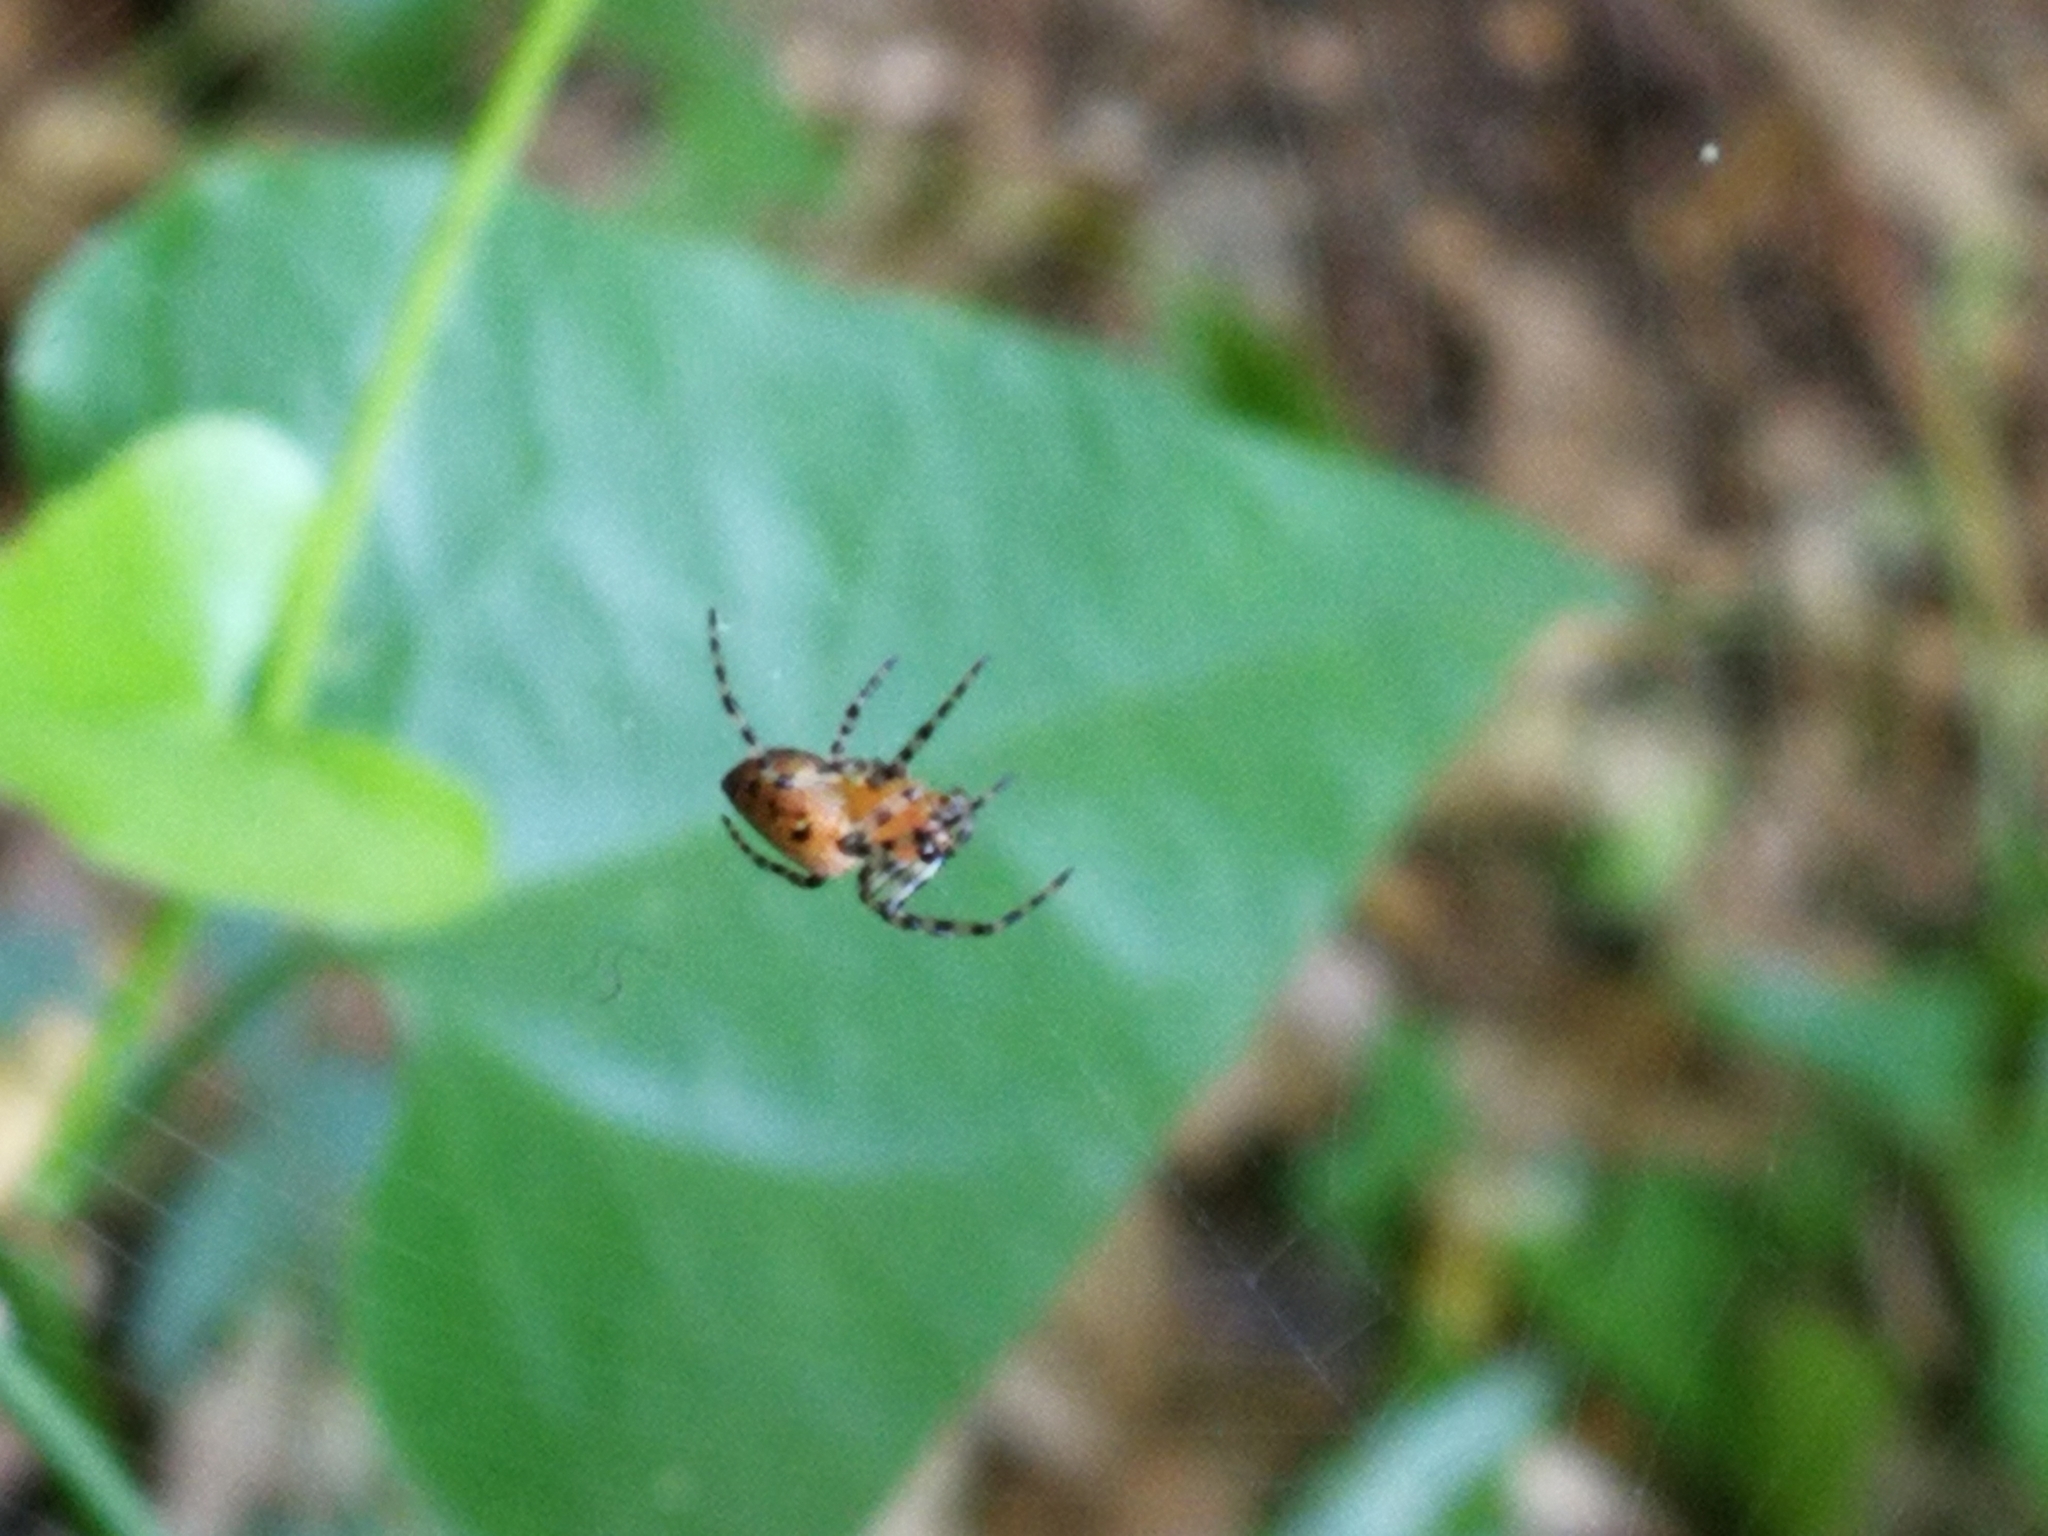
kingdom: Animalia
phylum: Arthropoda
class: Arachnida
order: Araneae
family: Araneidae
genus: Alpaida
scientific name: Alpaida gallardoi
